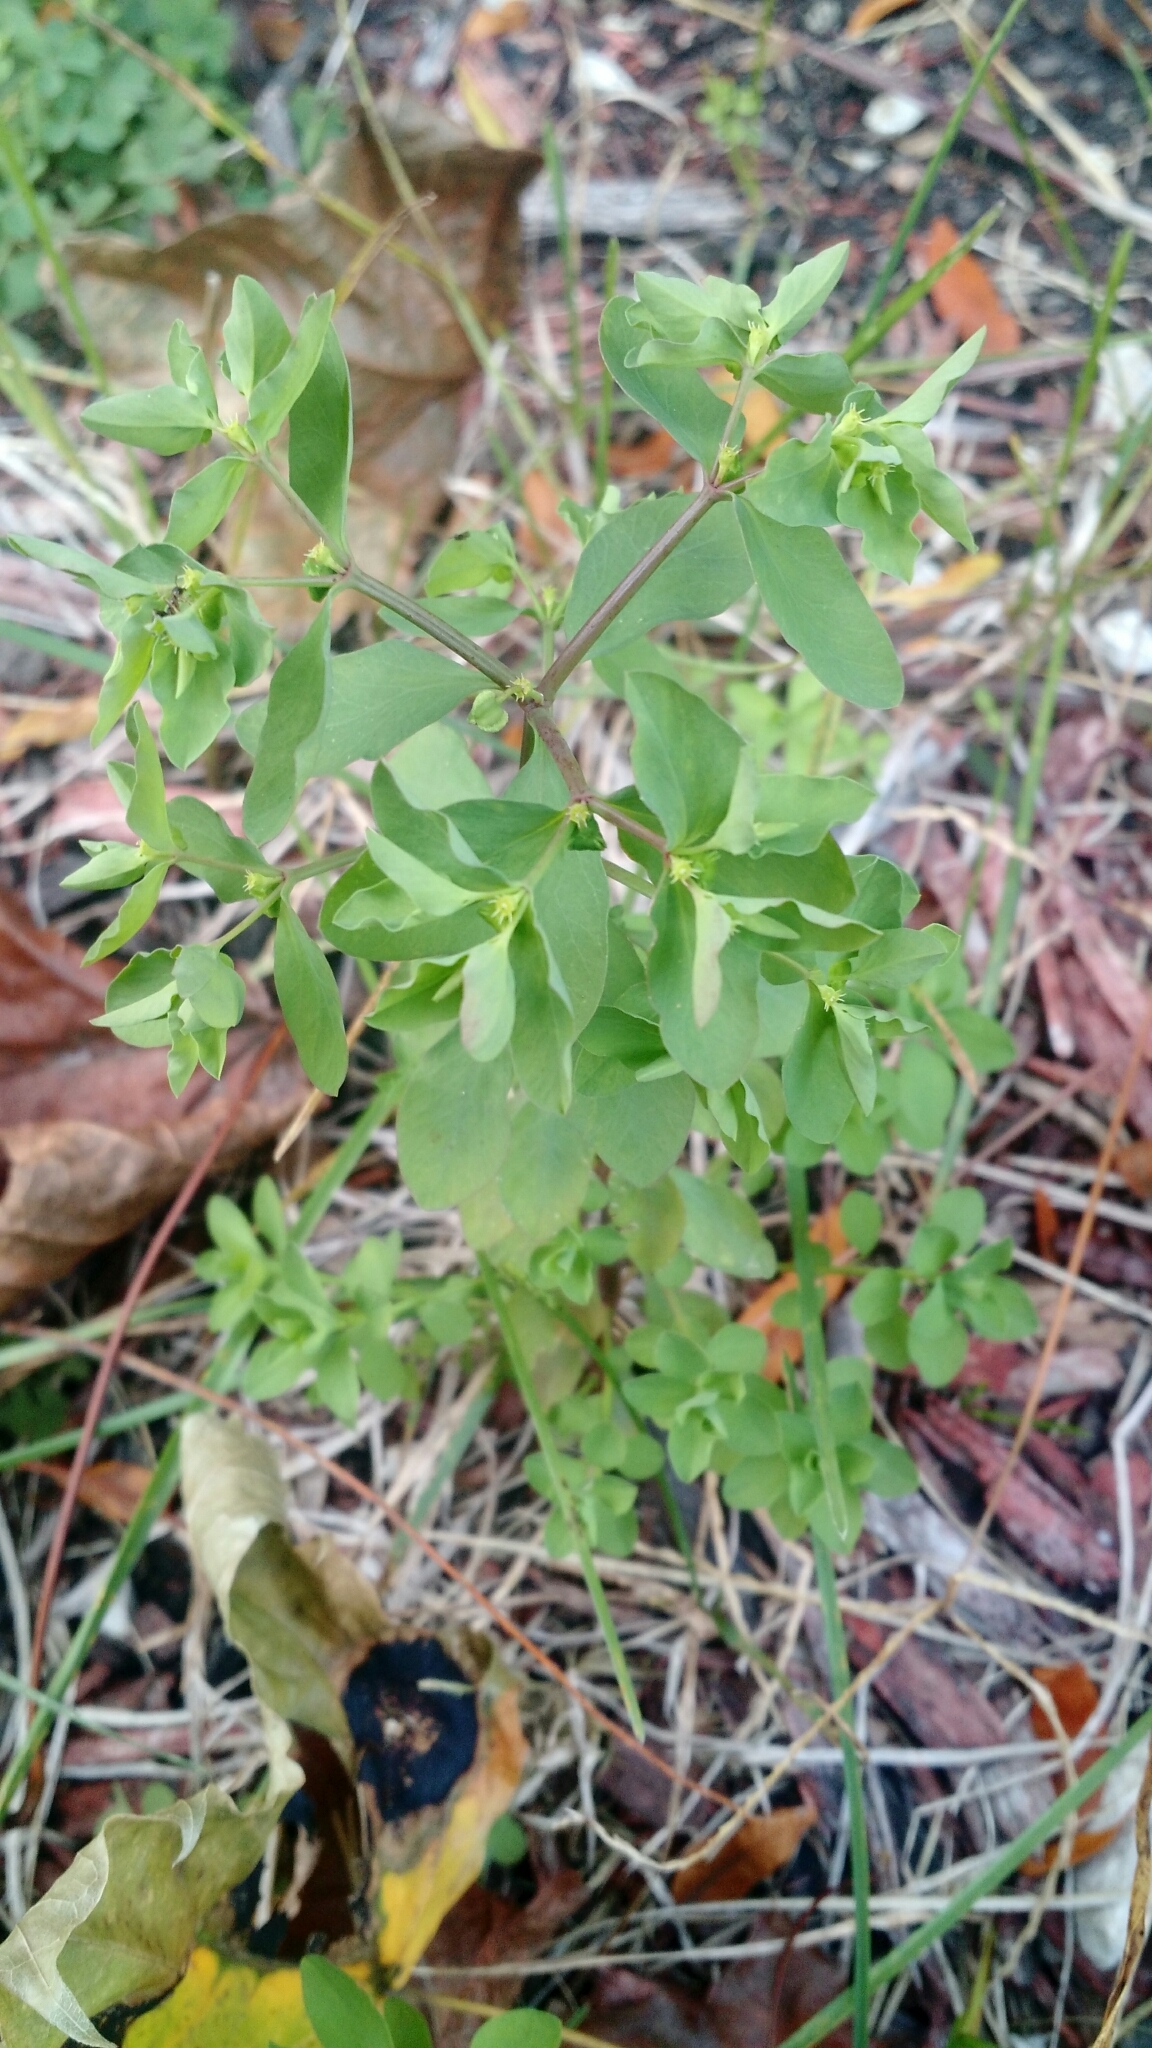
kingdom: Plantae
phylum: Tracheophyta
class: Magnoliopsida
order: Malpighiales
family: Euphorbiaceae
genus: Euphorbia
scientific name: Euphorbia peplus
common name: Petty spurge
